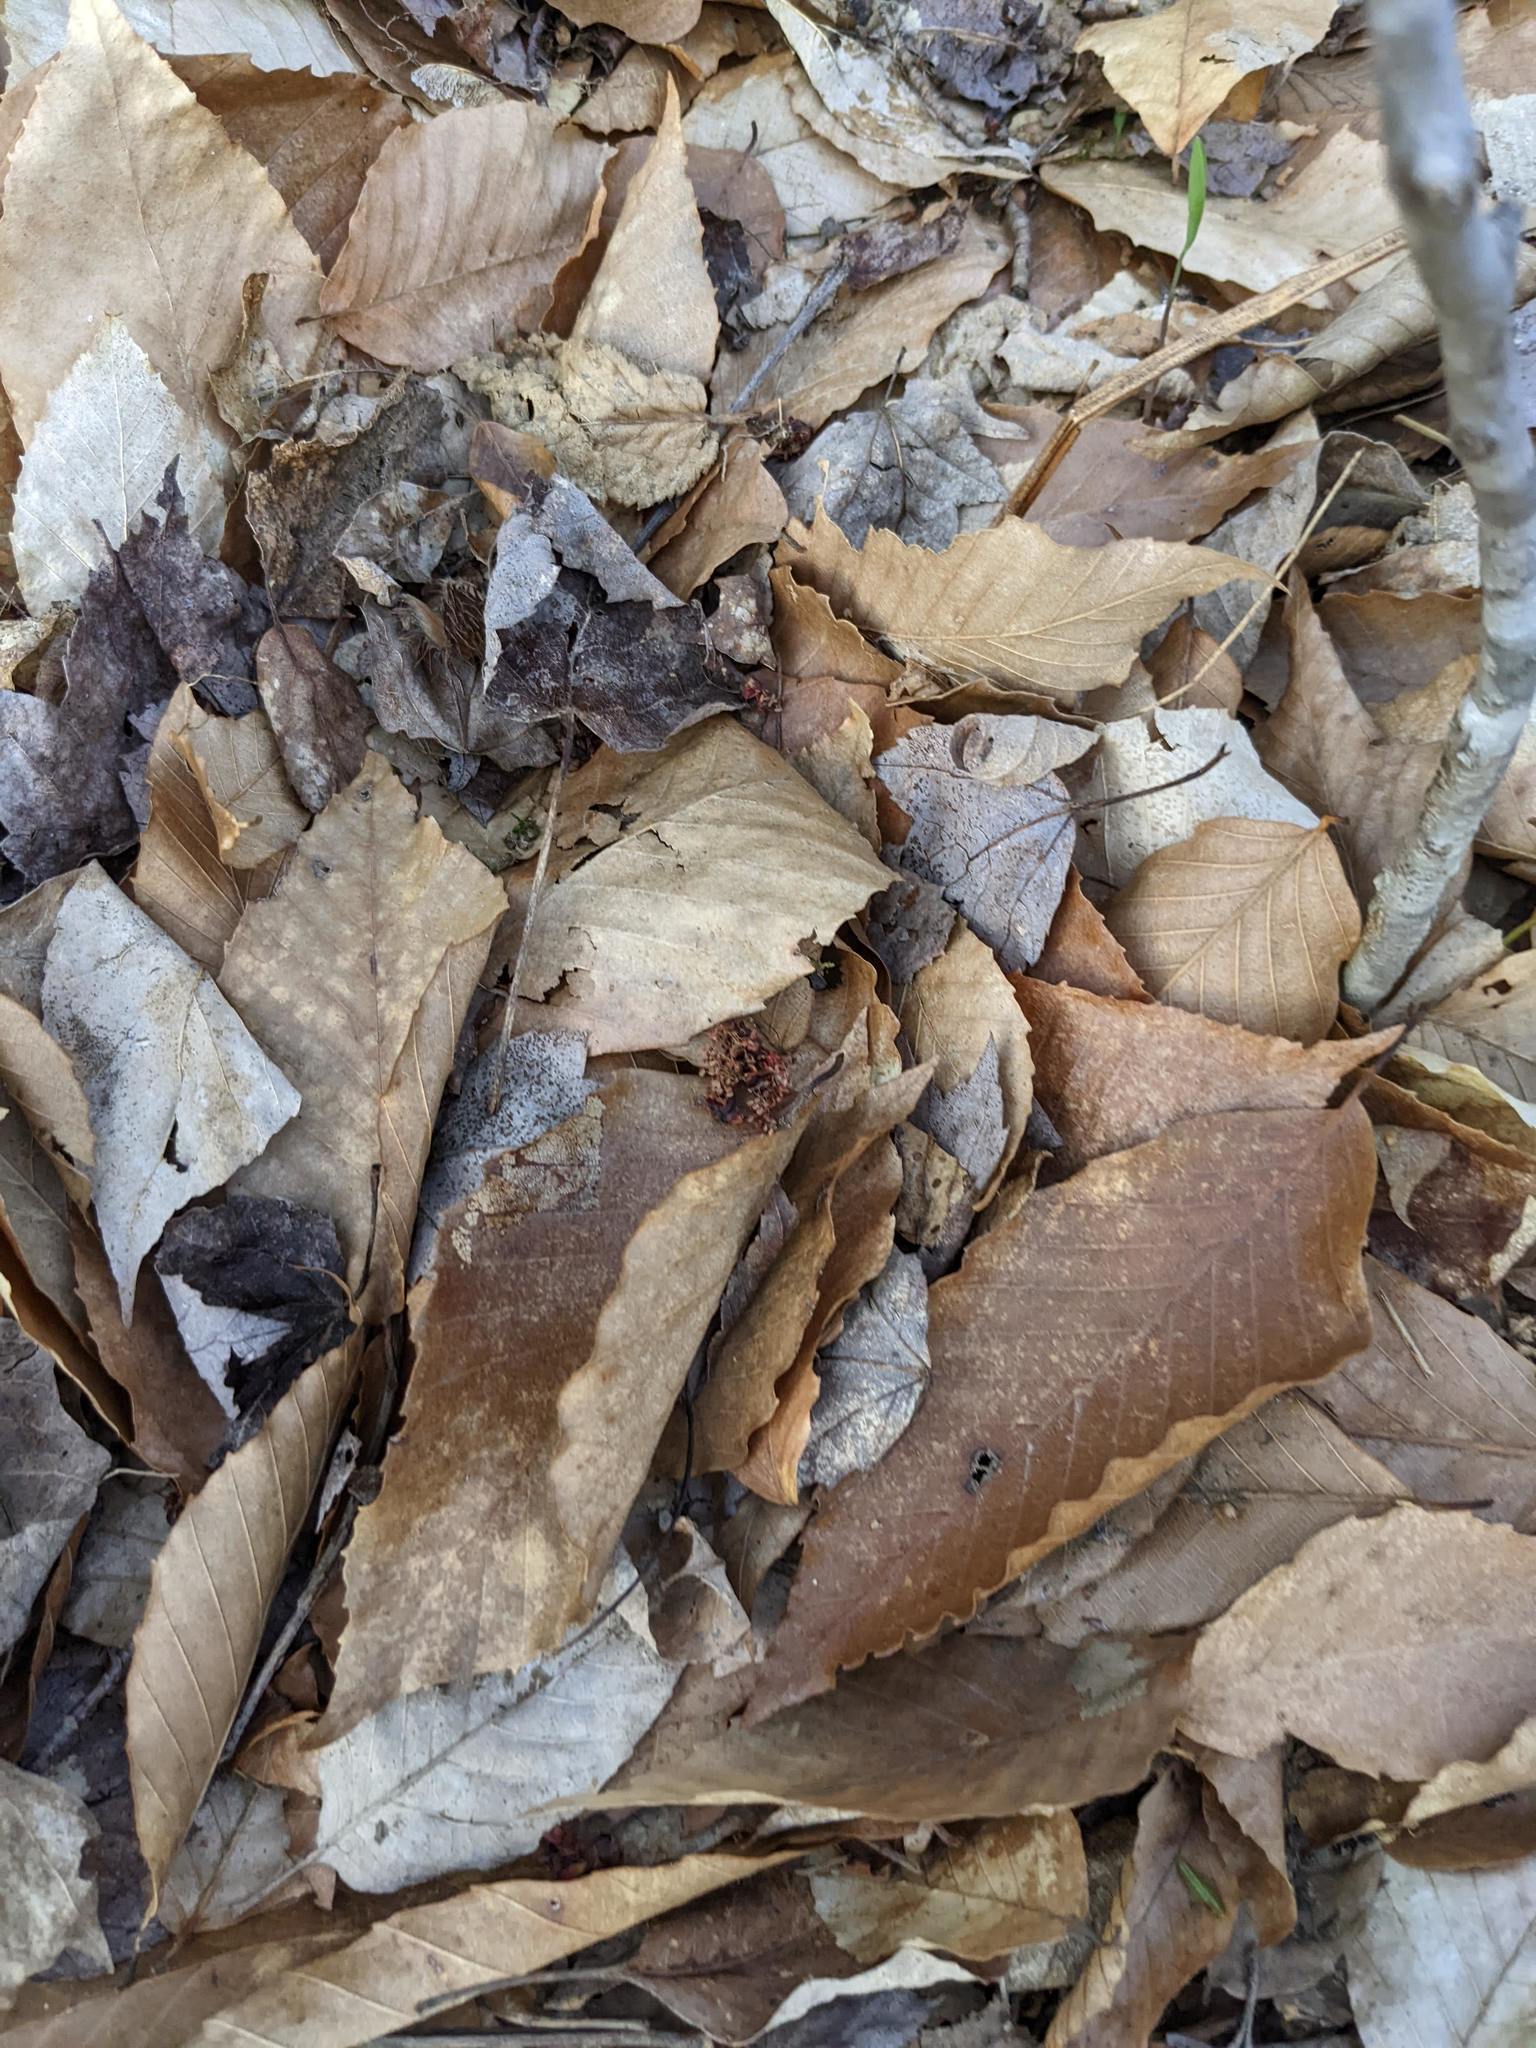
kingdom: Plantae
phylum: Tracheophyta
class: Magnoliopsida
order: Fagales
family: Fagaceae
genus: Fagus
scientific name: Fagus grandifolia
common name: American beech
